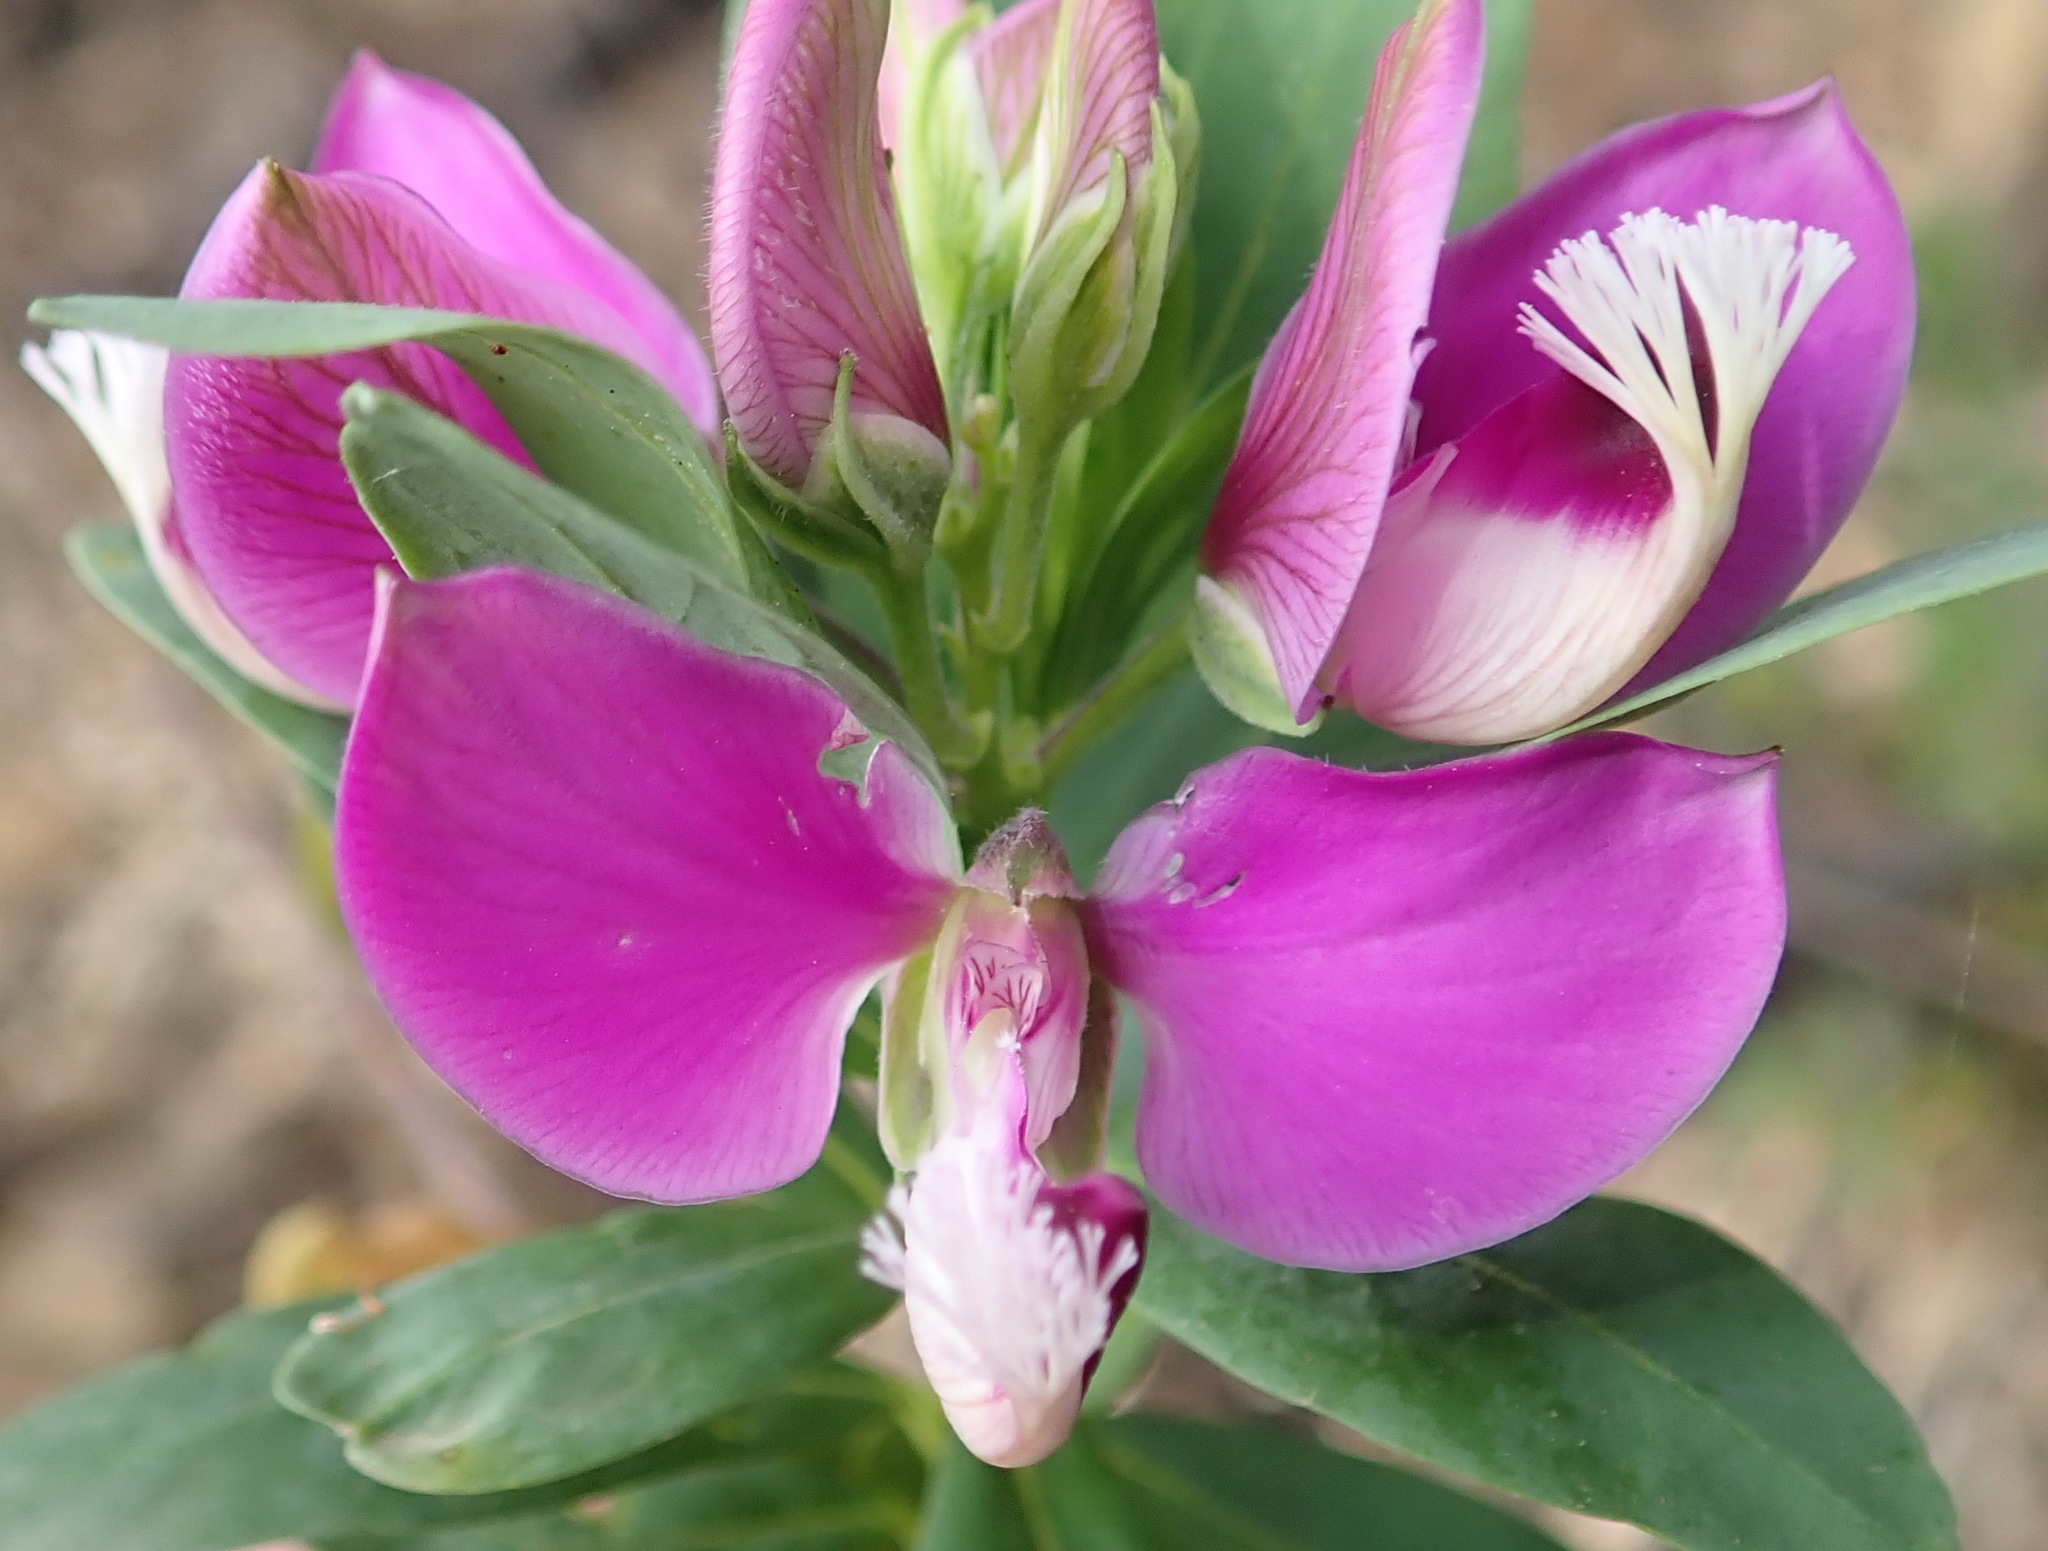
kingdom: Plantae
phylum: Tracheophyta
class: Magnoliopsida
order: Fabales
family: Polygalaceae
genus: Polygala
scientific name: Polygala myrtifolia
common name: Myrtle-leaf milkwort
